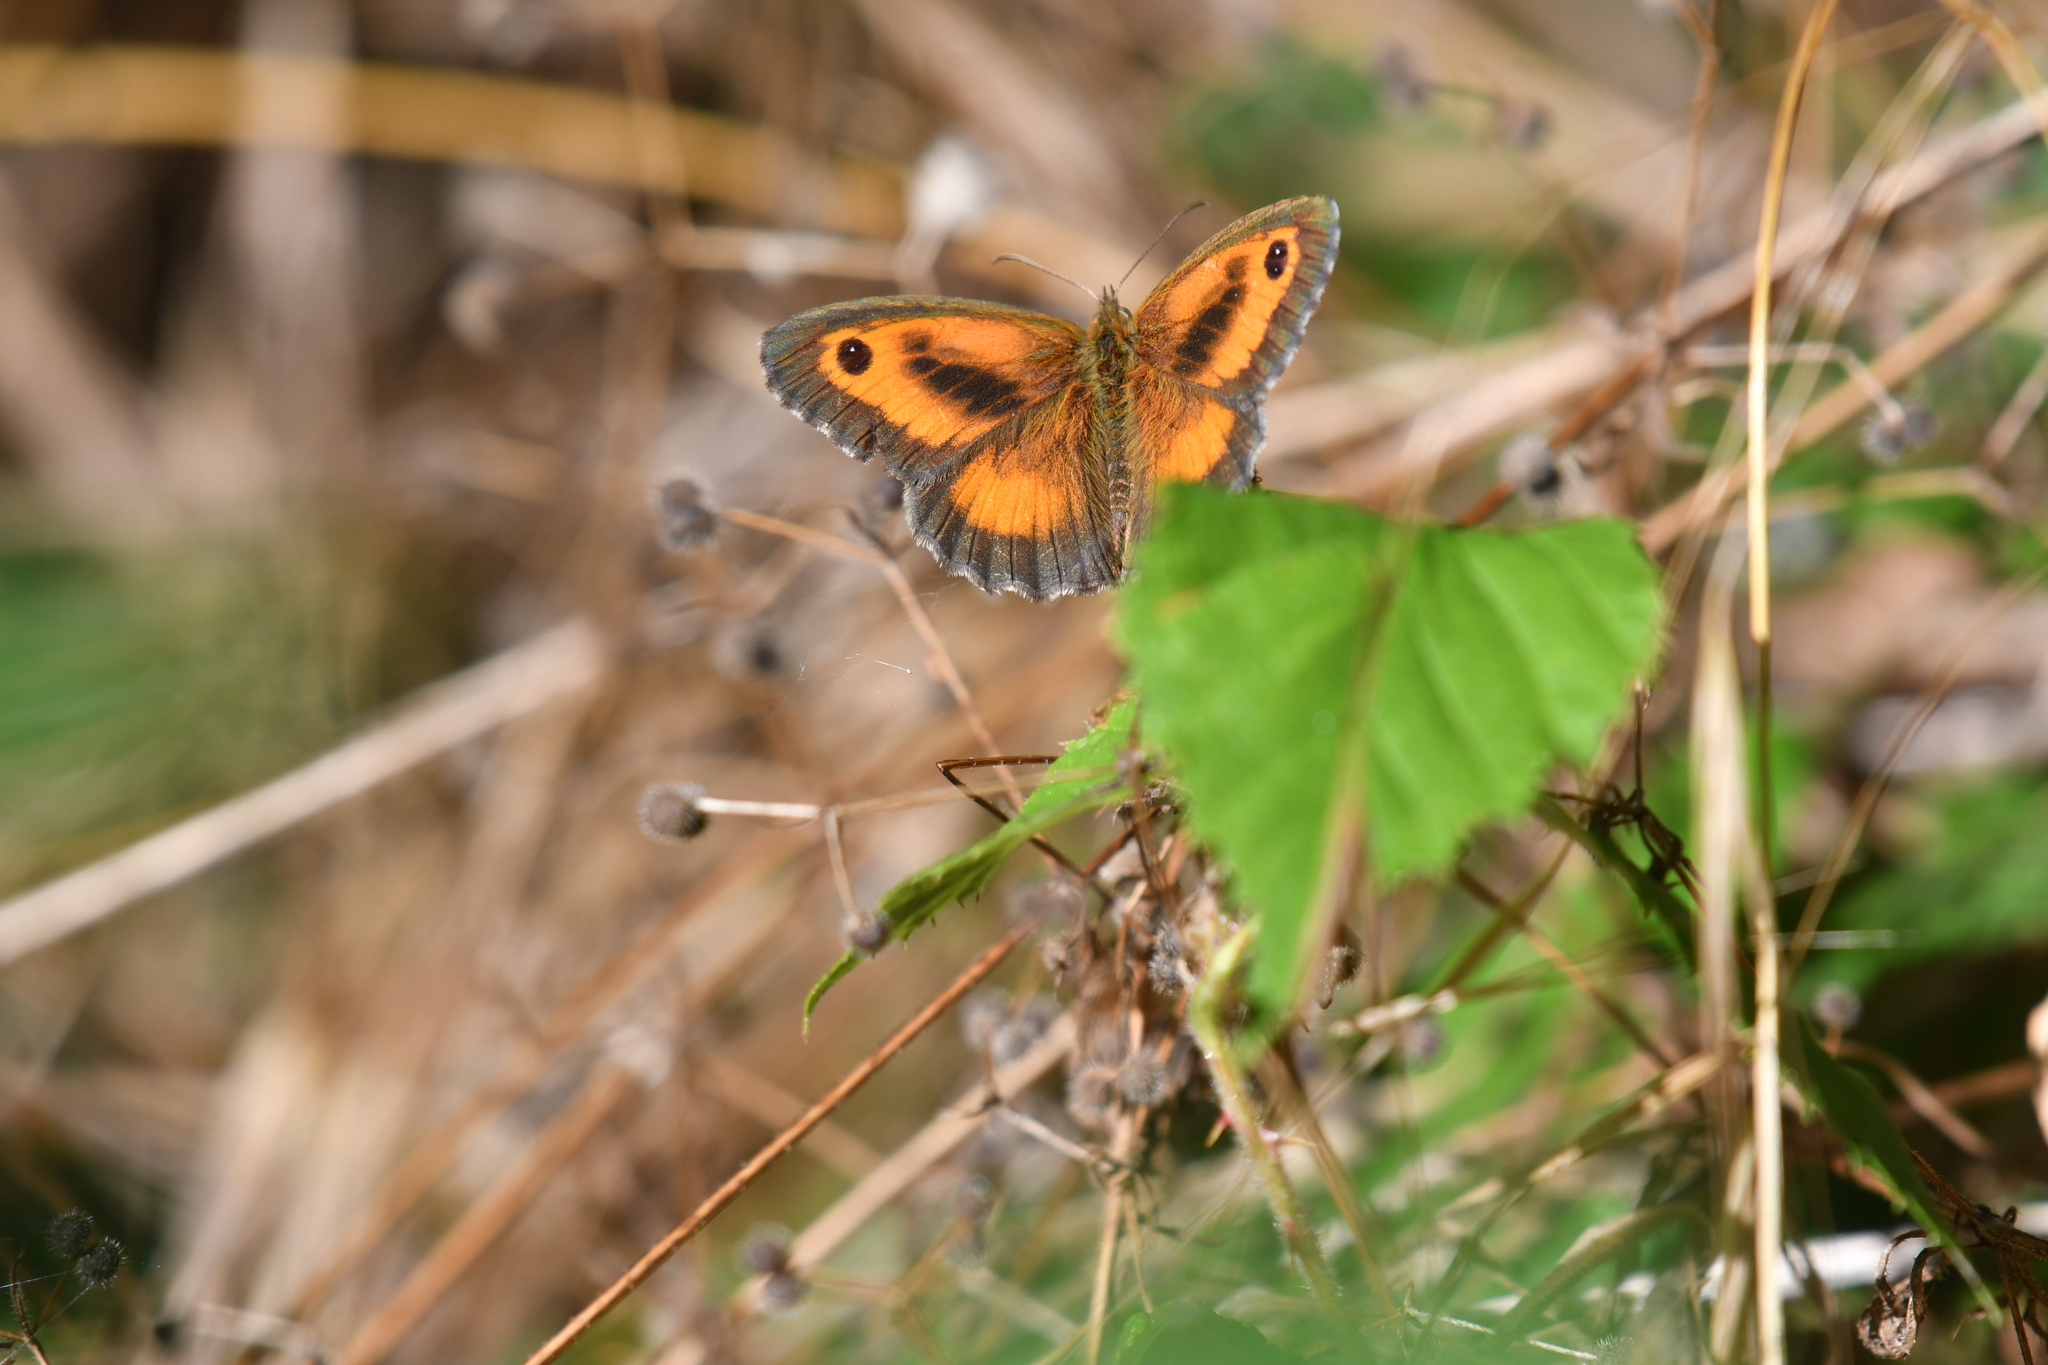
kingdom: Animalia
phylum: Arthropoda
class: Insecta
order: Lepidoptera
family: Nymphalidae
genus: Pyronia
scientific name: Pyronia tithonus
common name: Gatekeeper
